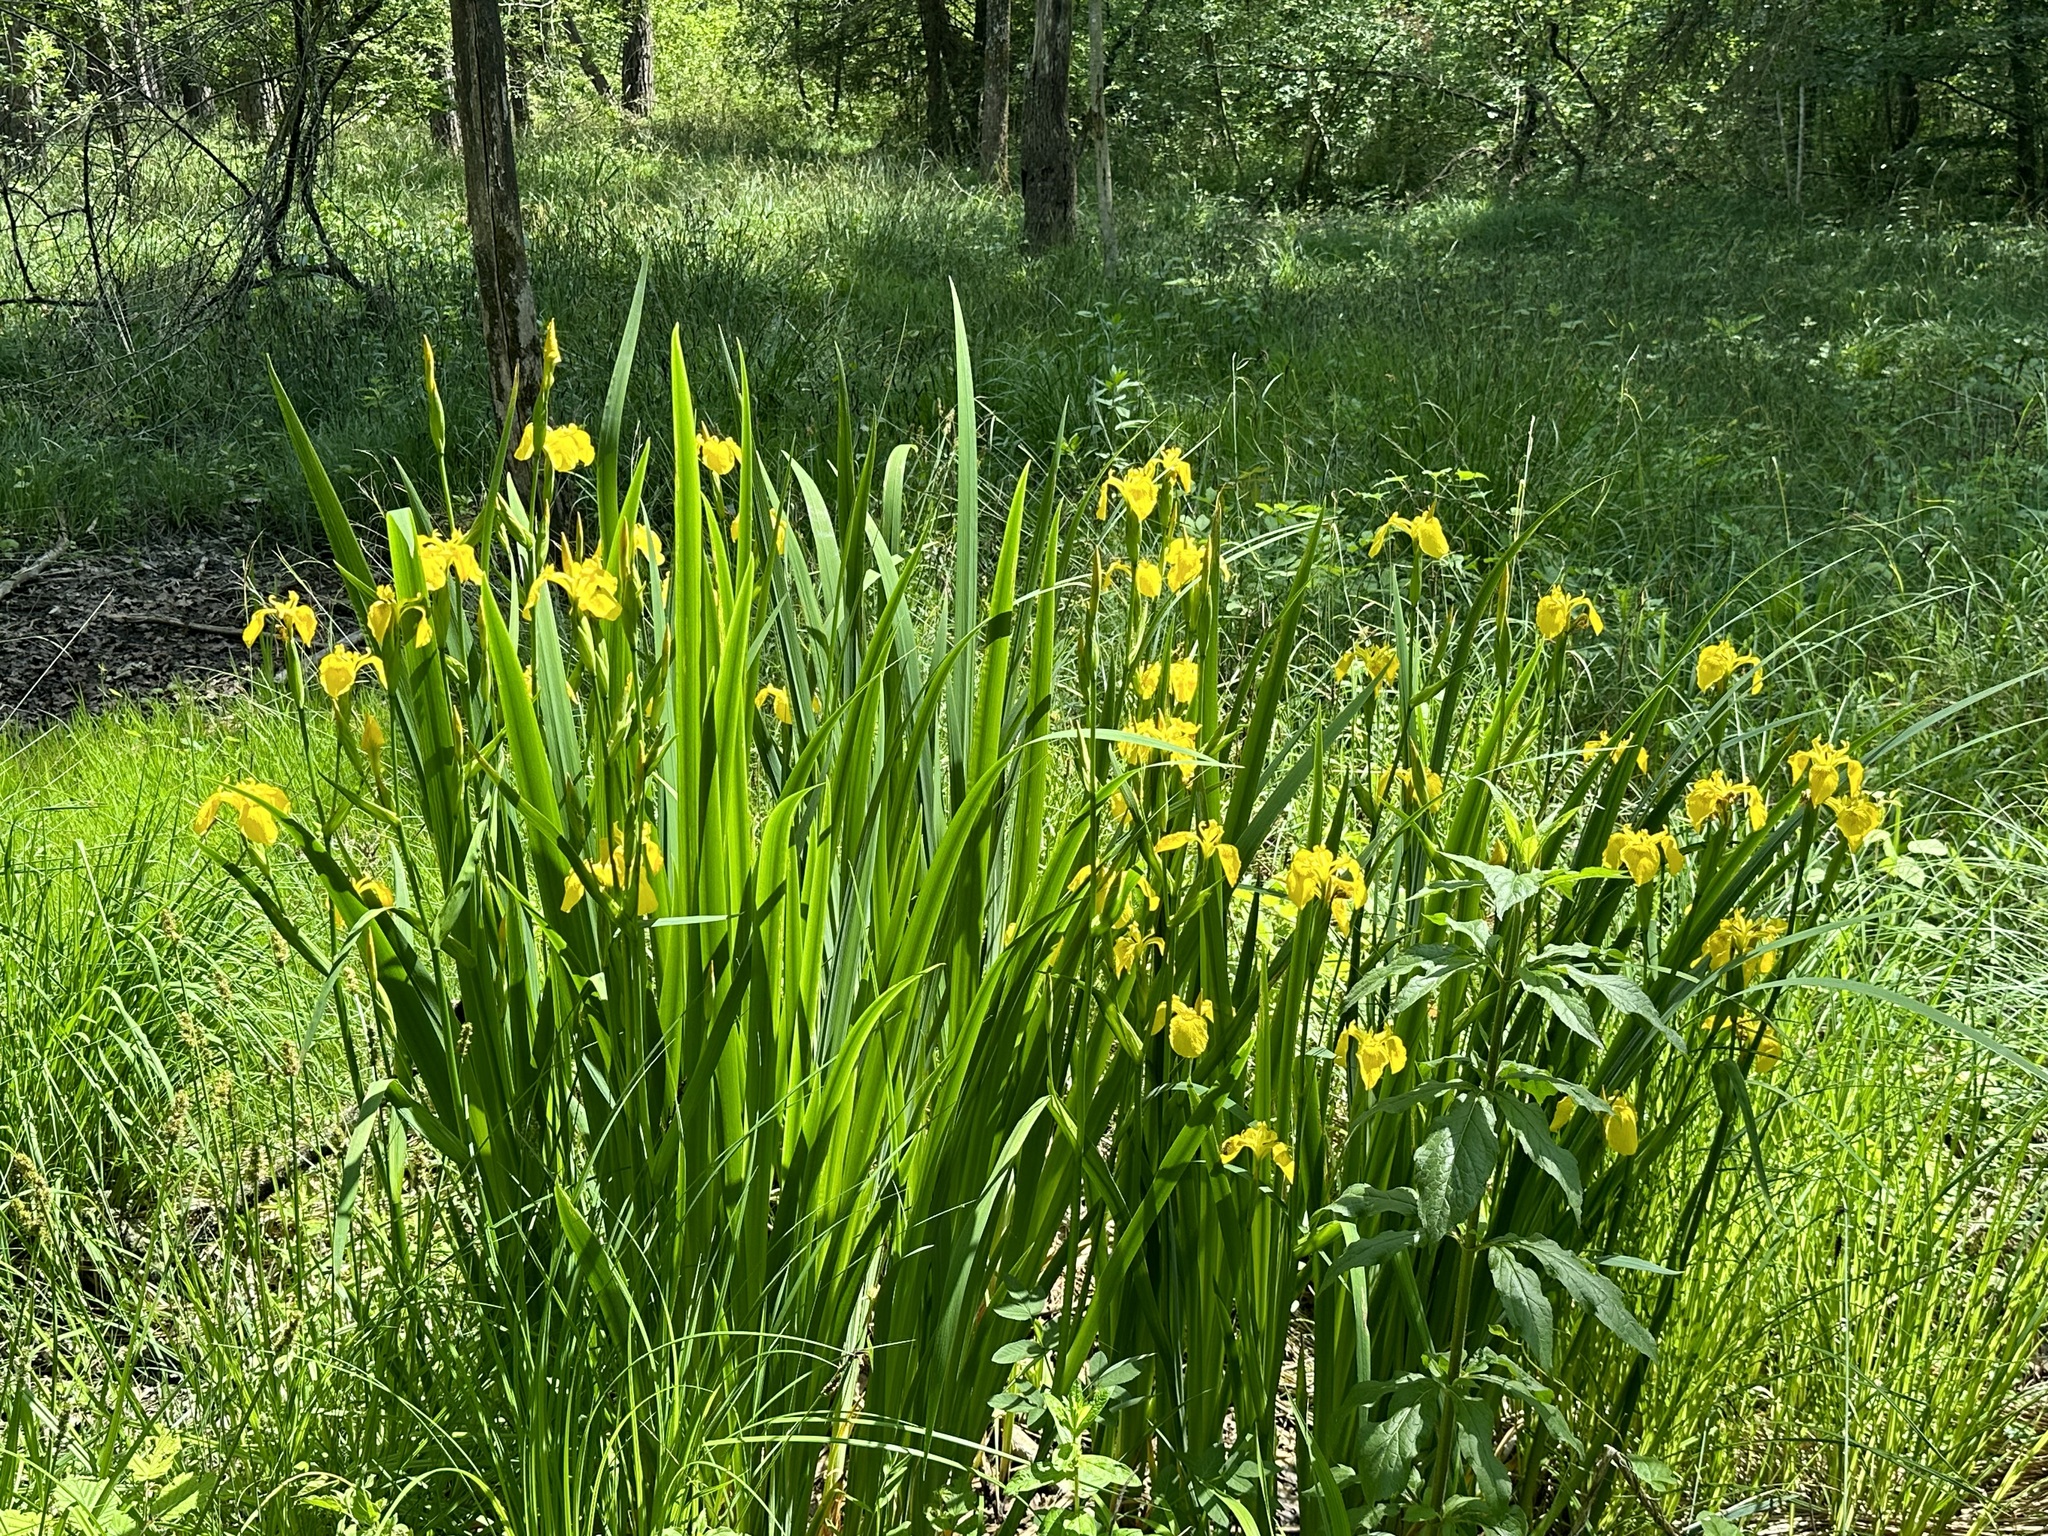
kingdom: Plantae
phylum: Tracheophyta
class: Liliopsida
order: Asparagales
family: Iridaceae
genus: Iris
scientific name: Iris pseudacorus
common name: Yellow flag
